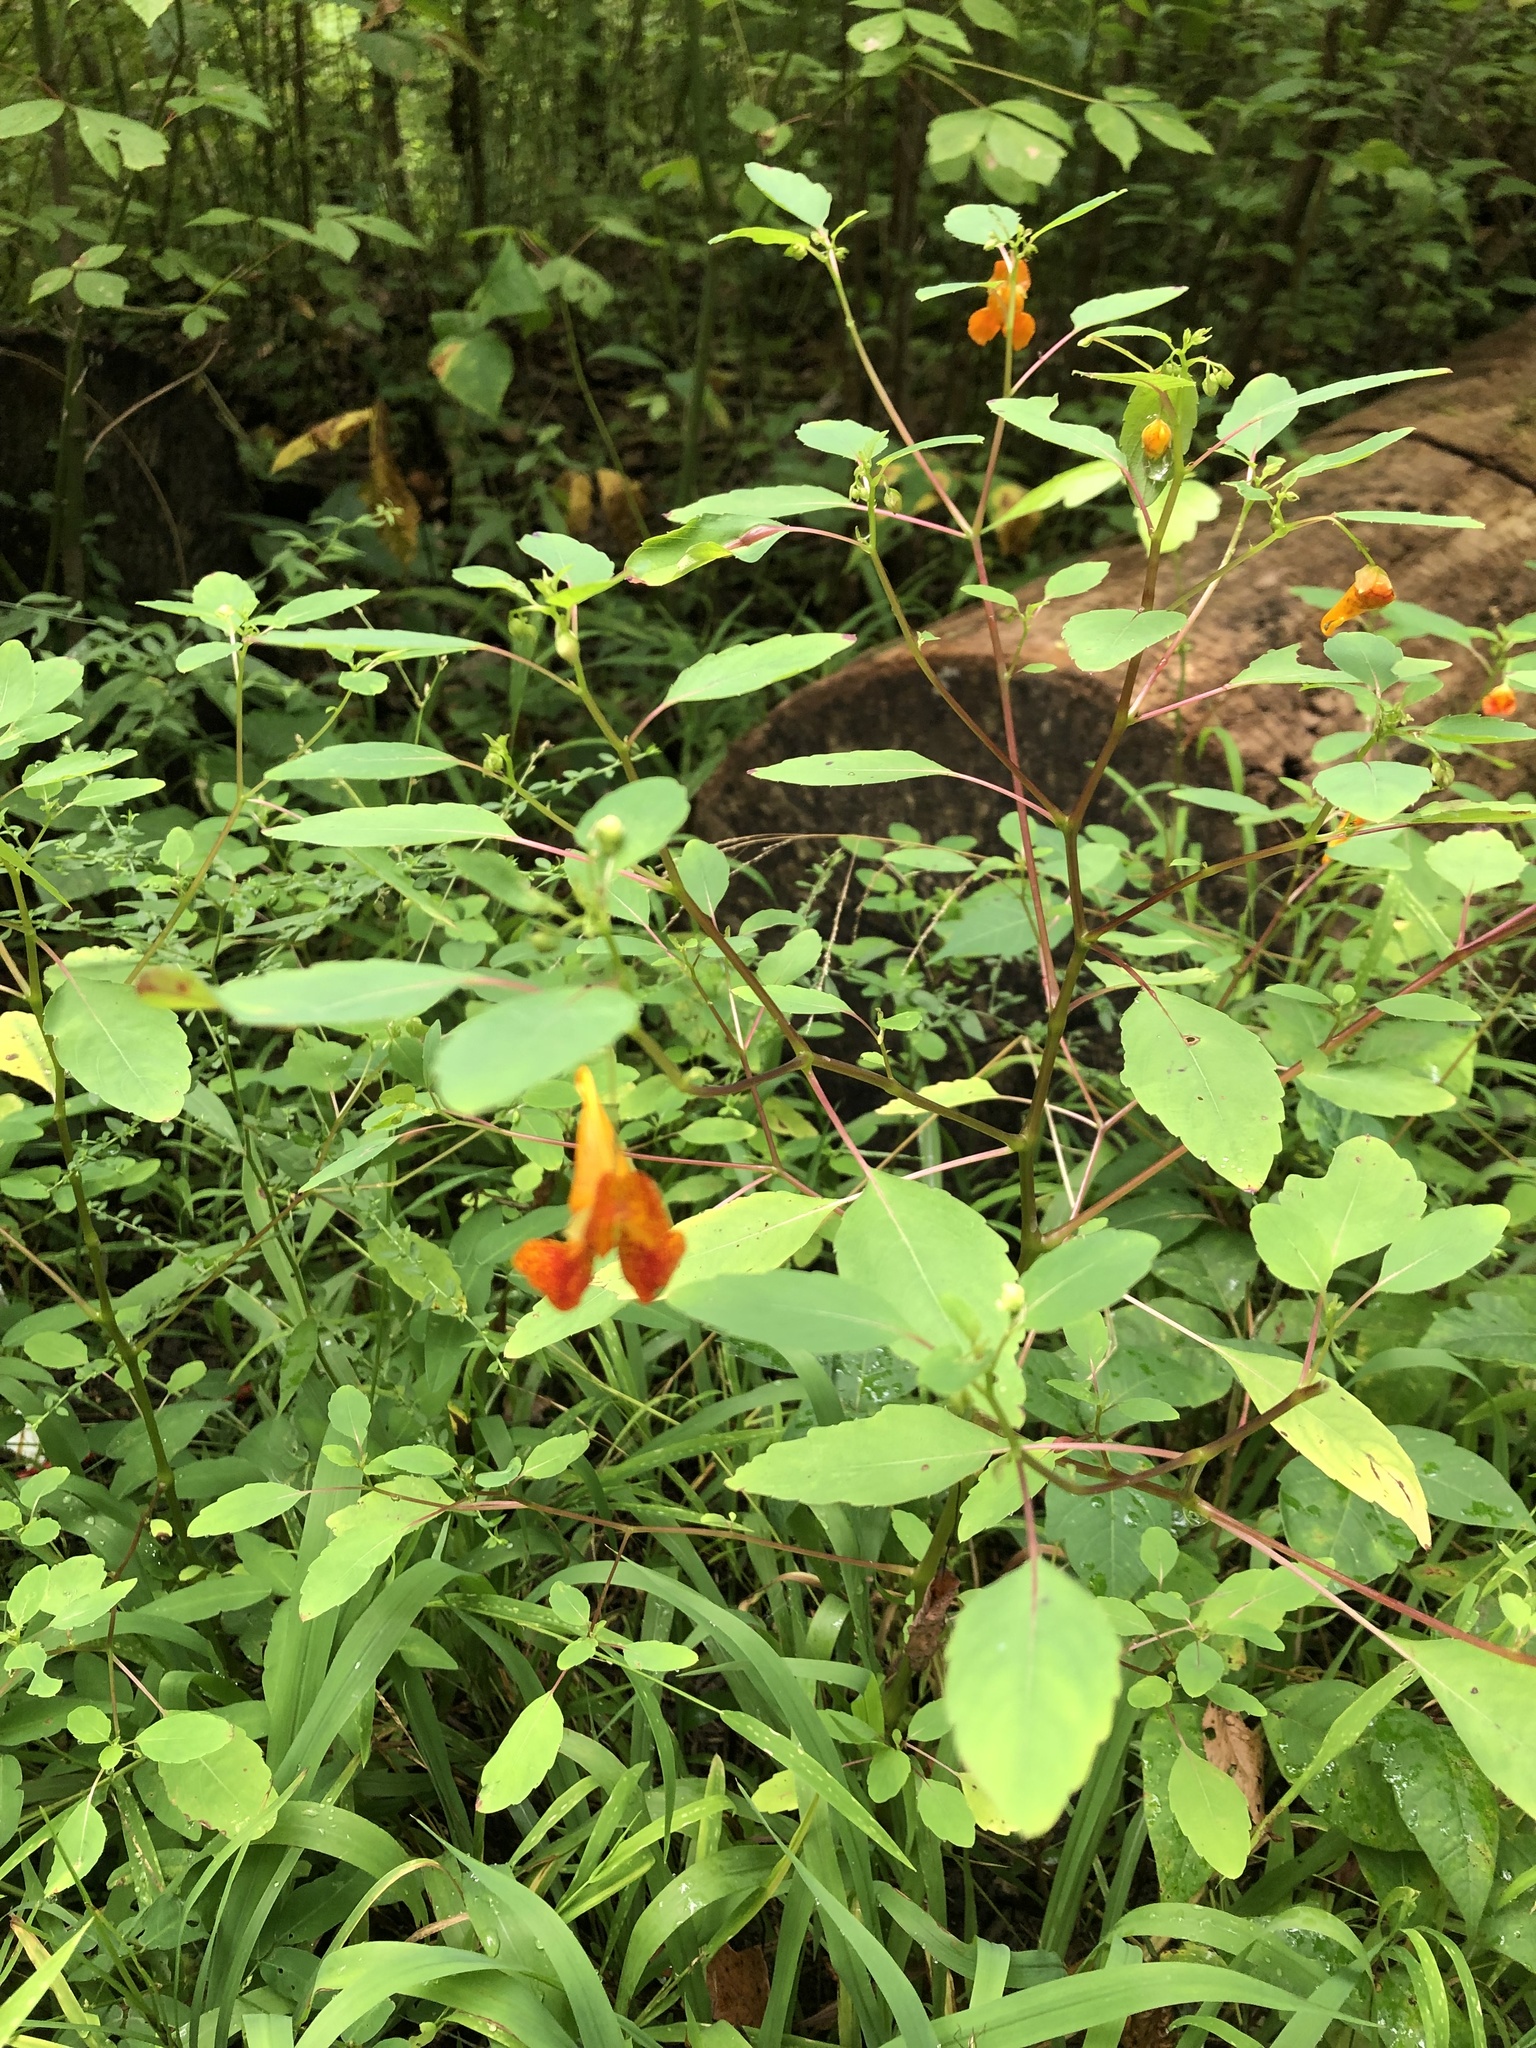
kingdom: Plantae
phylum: Tracheophyta
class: Magnoliopsida
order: Ericales
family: Balsaminaceae
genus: Impatiens
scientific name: Impatiens capensis
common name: Orange balsam
